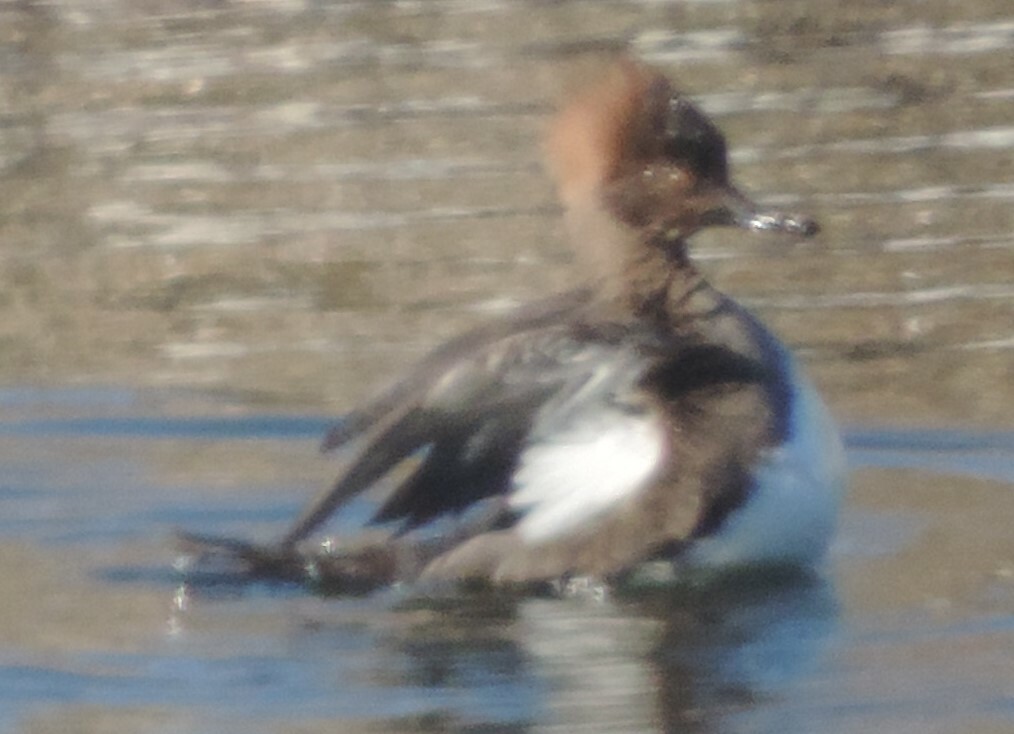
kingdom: Animalia
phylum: Chordata
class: Aves
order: Anseriformes
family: Anatidae
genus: Lophodytes
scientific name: Lophodytes cucullatus
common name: Hooded merganser
